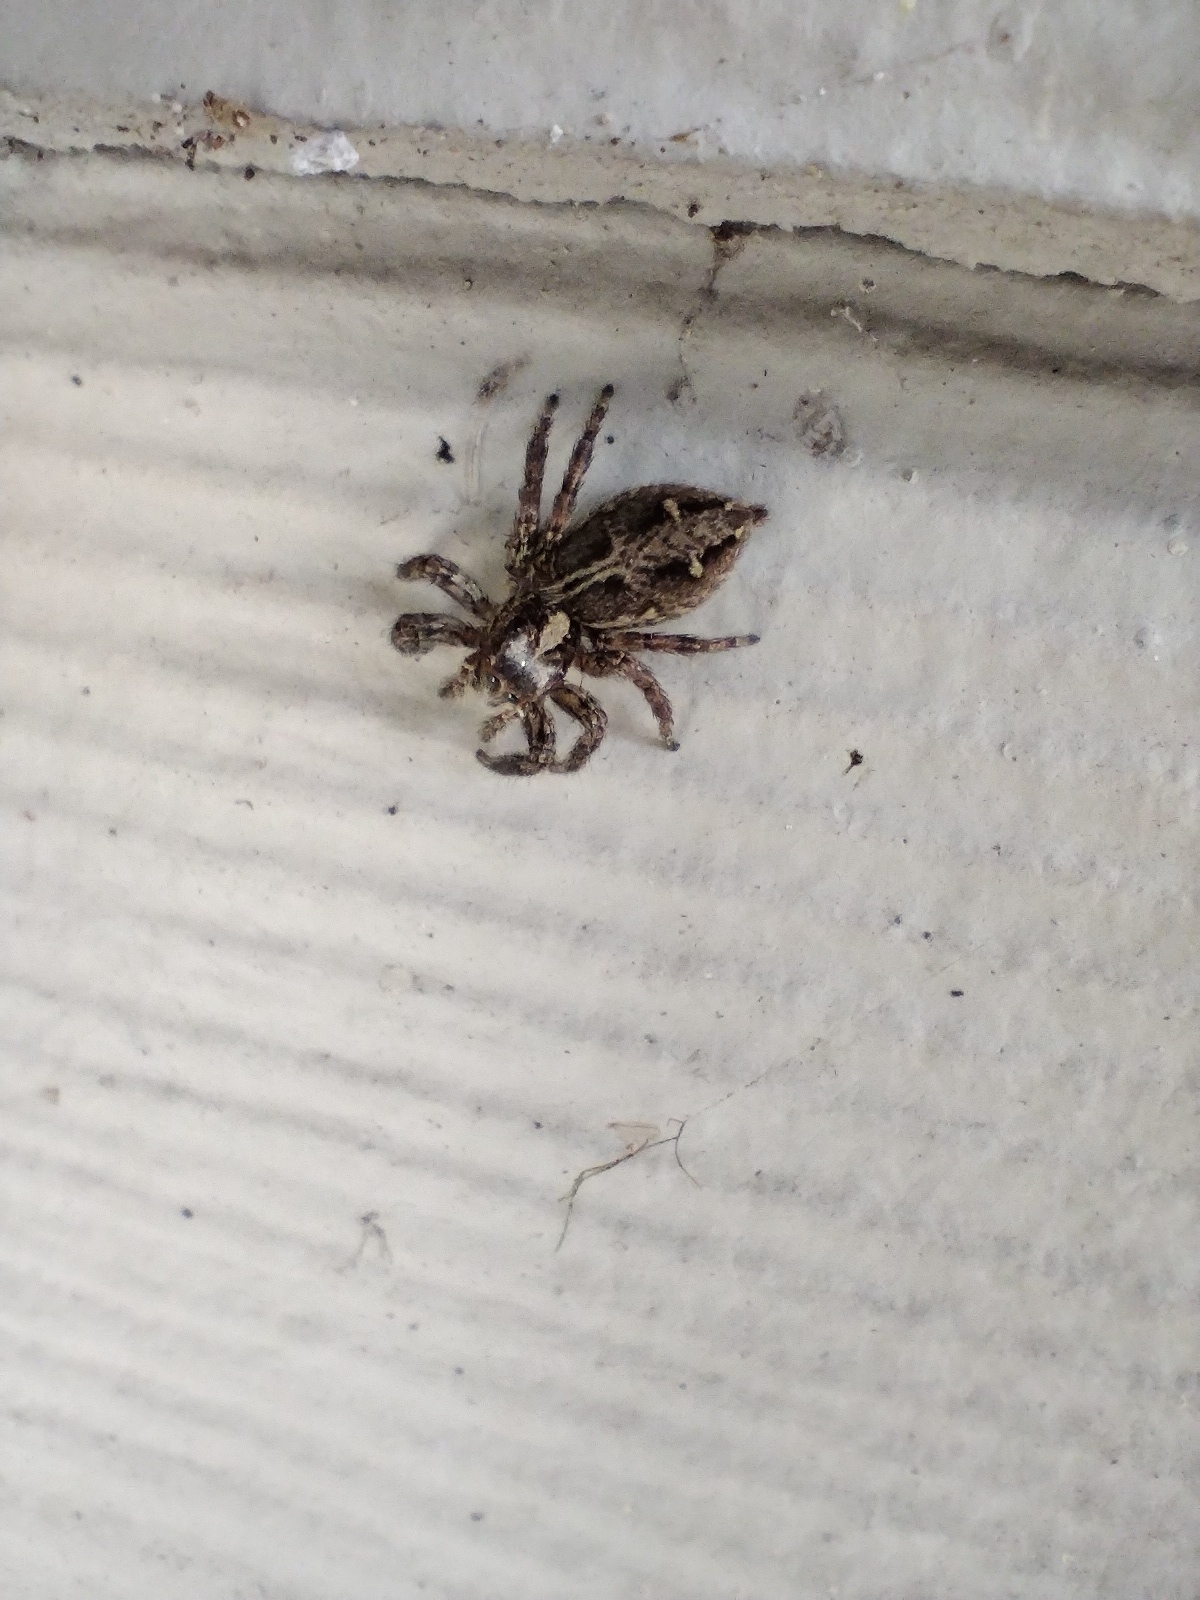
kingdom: Animalia
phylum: Arthropoda
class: Arachnida
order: Araneae
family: Salticidae
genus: Plexippus
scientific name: Plexippus paykulli
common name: Pantropical jumper
